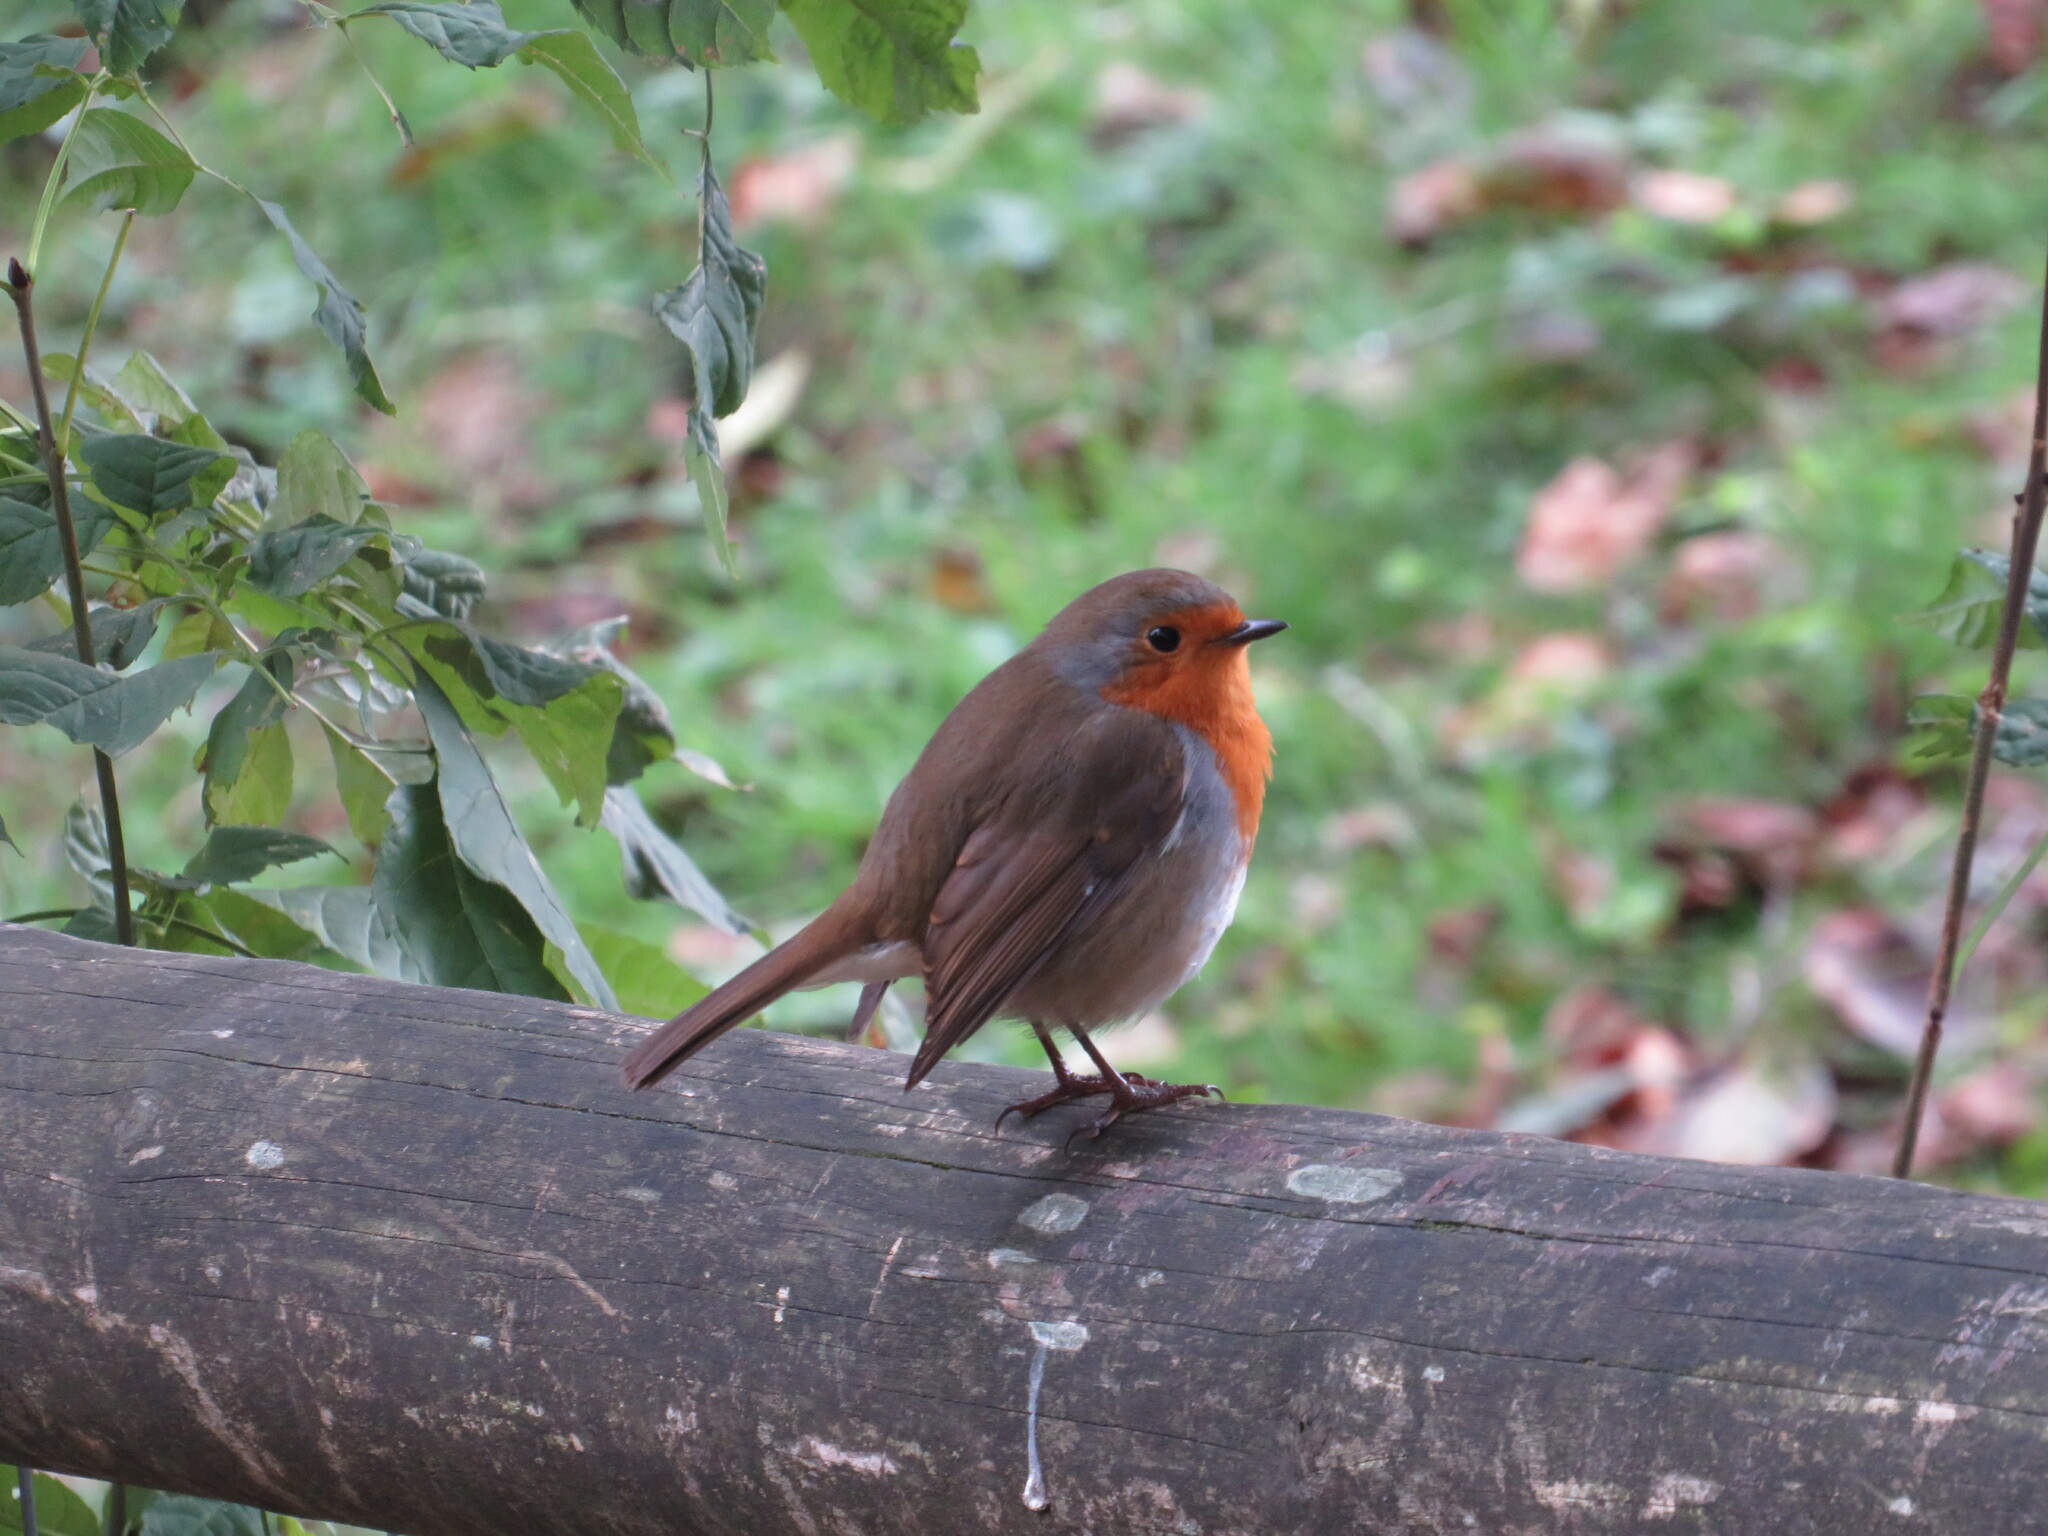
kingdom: Animalia
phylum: Chordata
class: Aves
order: Passeriformes
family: Muscicapidae
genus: Erithacus
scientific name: Erithacus rubecula
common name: European robin
